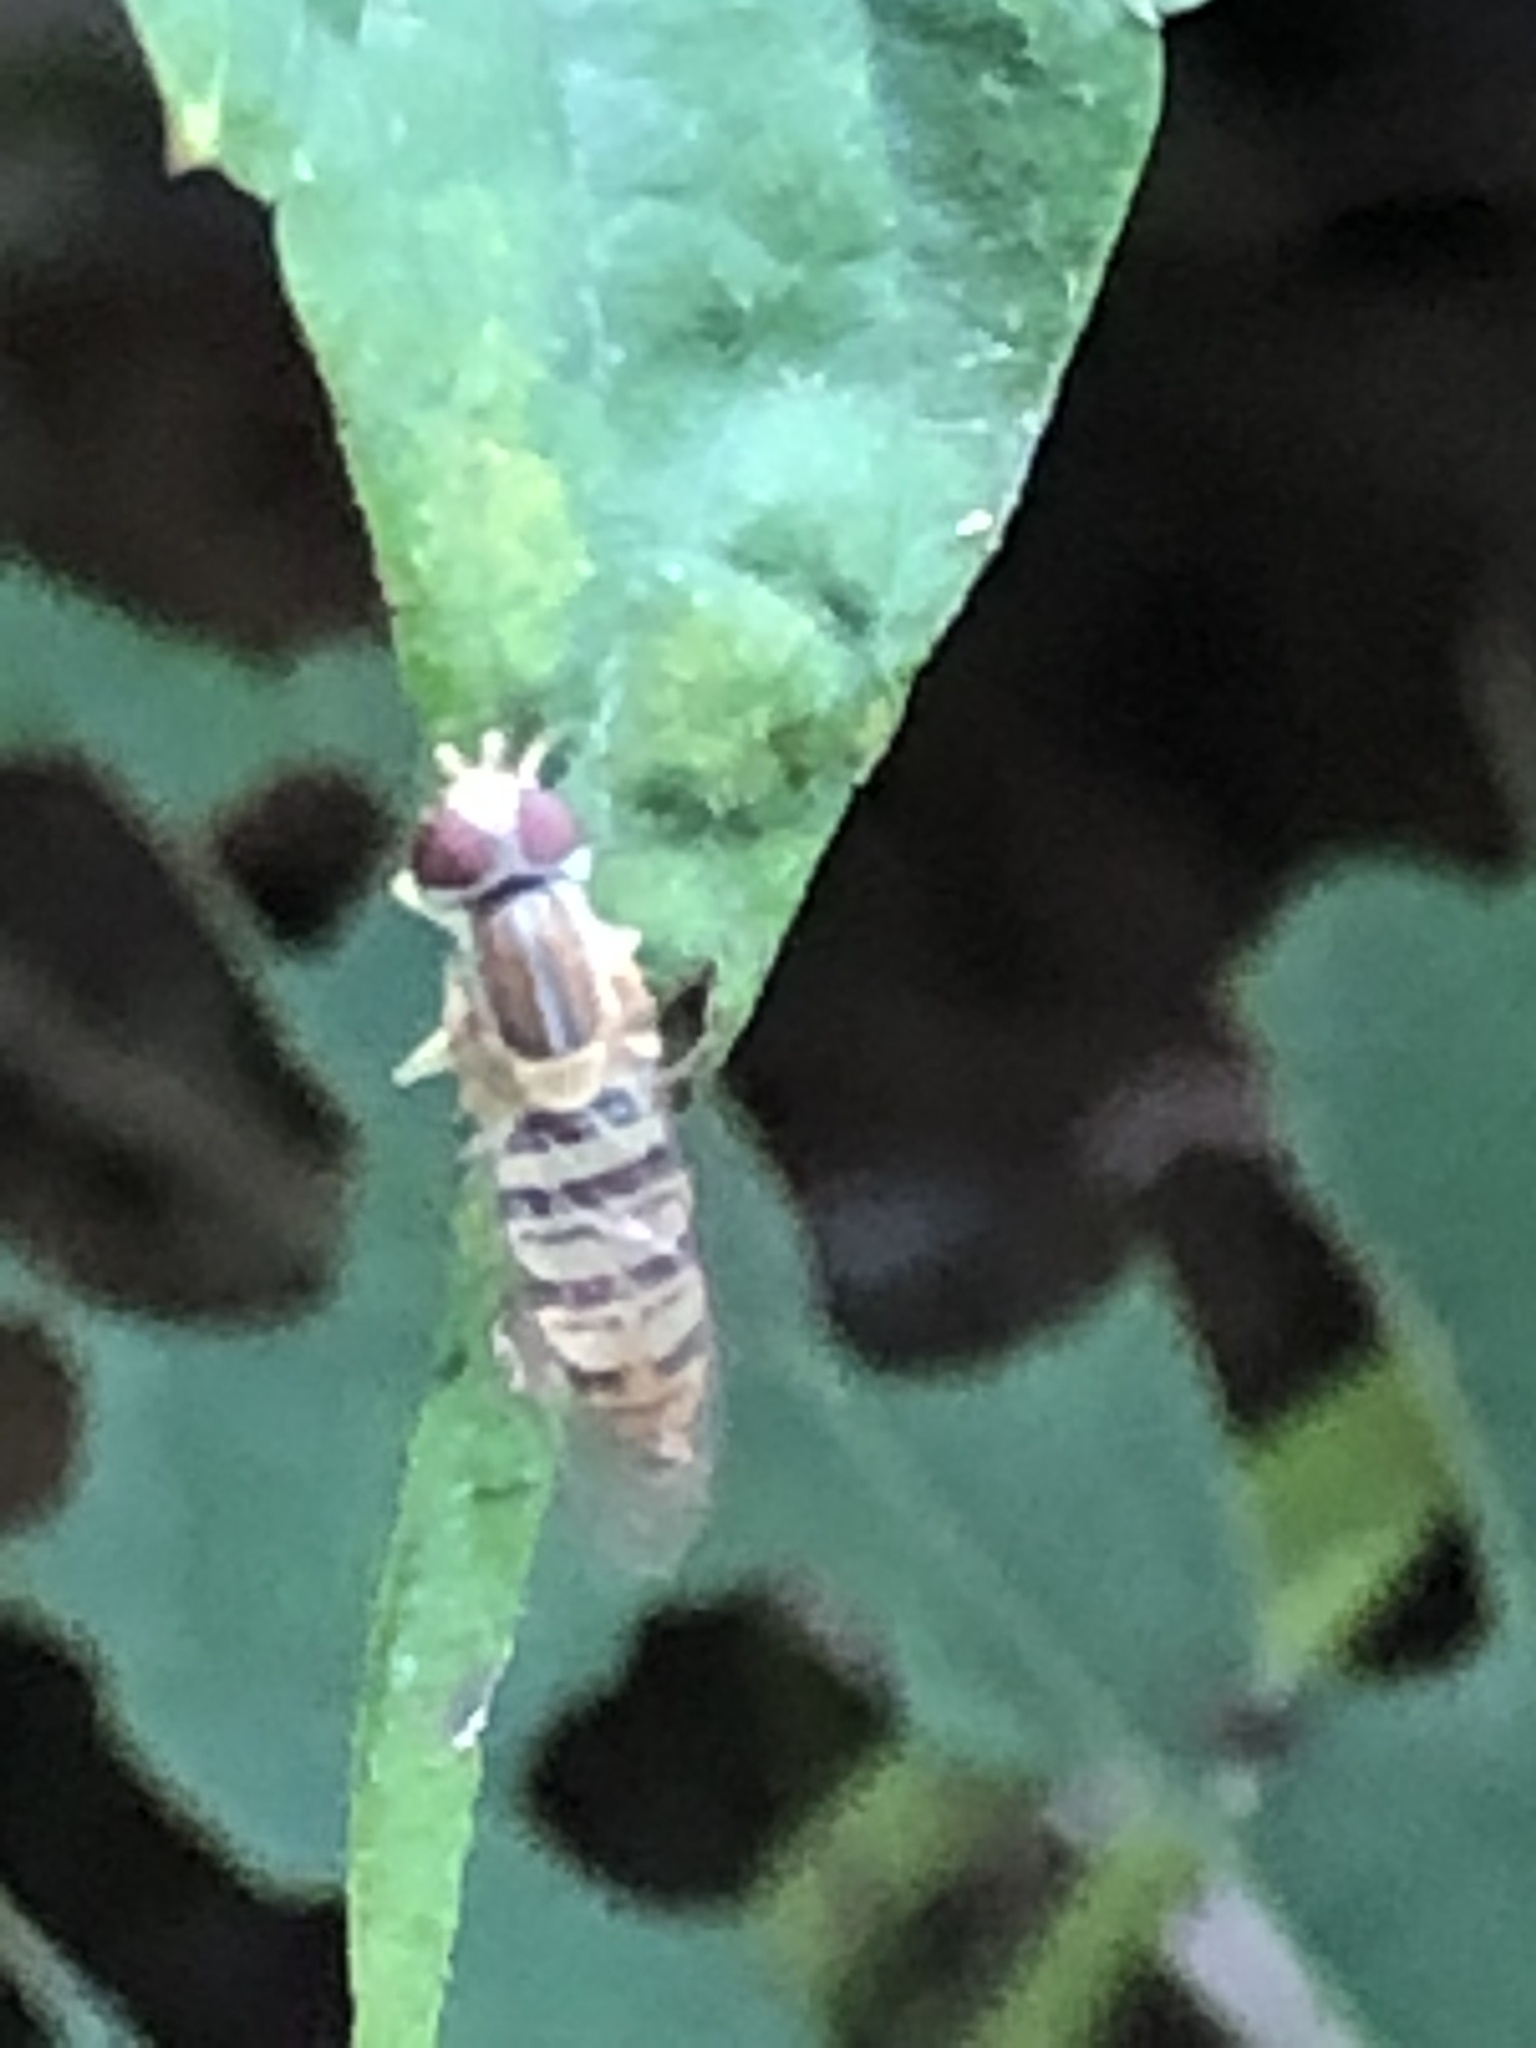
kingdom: Animalia
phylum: Arthropoda
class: Insecta
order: Diptera
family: Syrphidae
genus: Toxomerus
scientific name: Toxomerus politus
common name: Maize calligrapher
